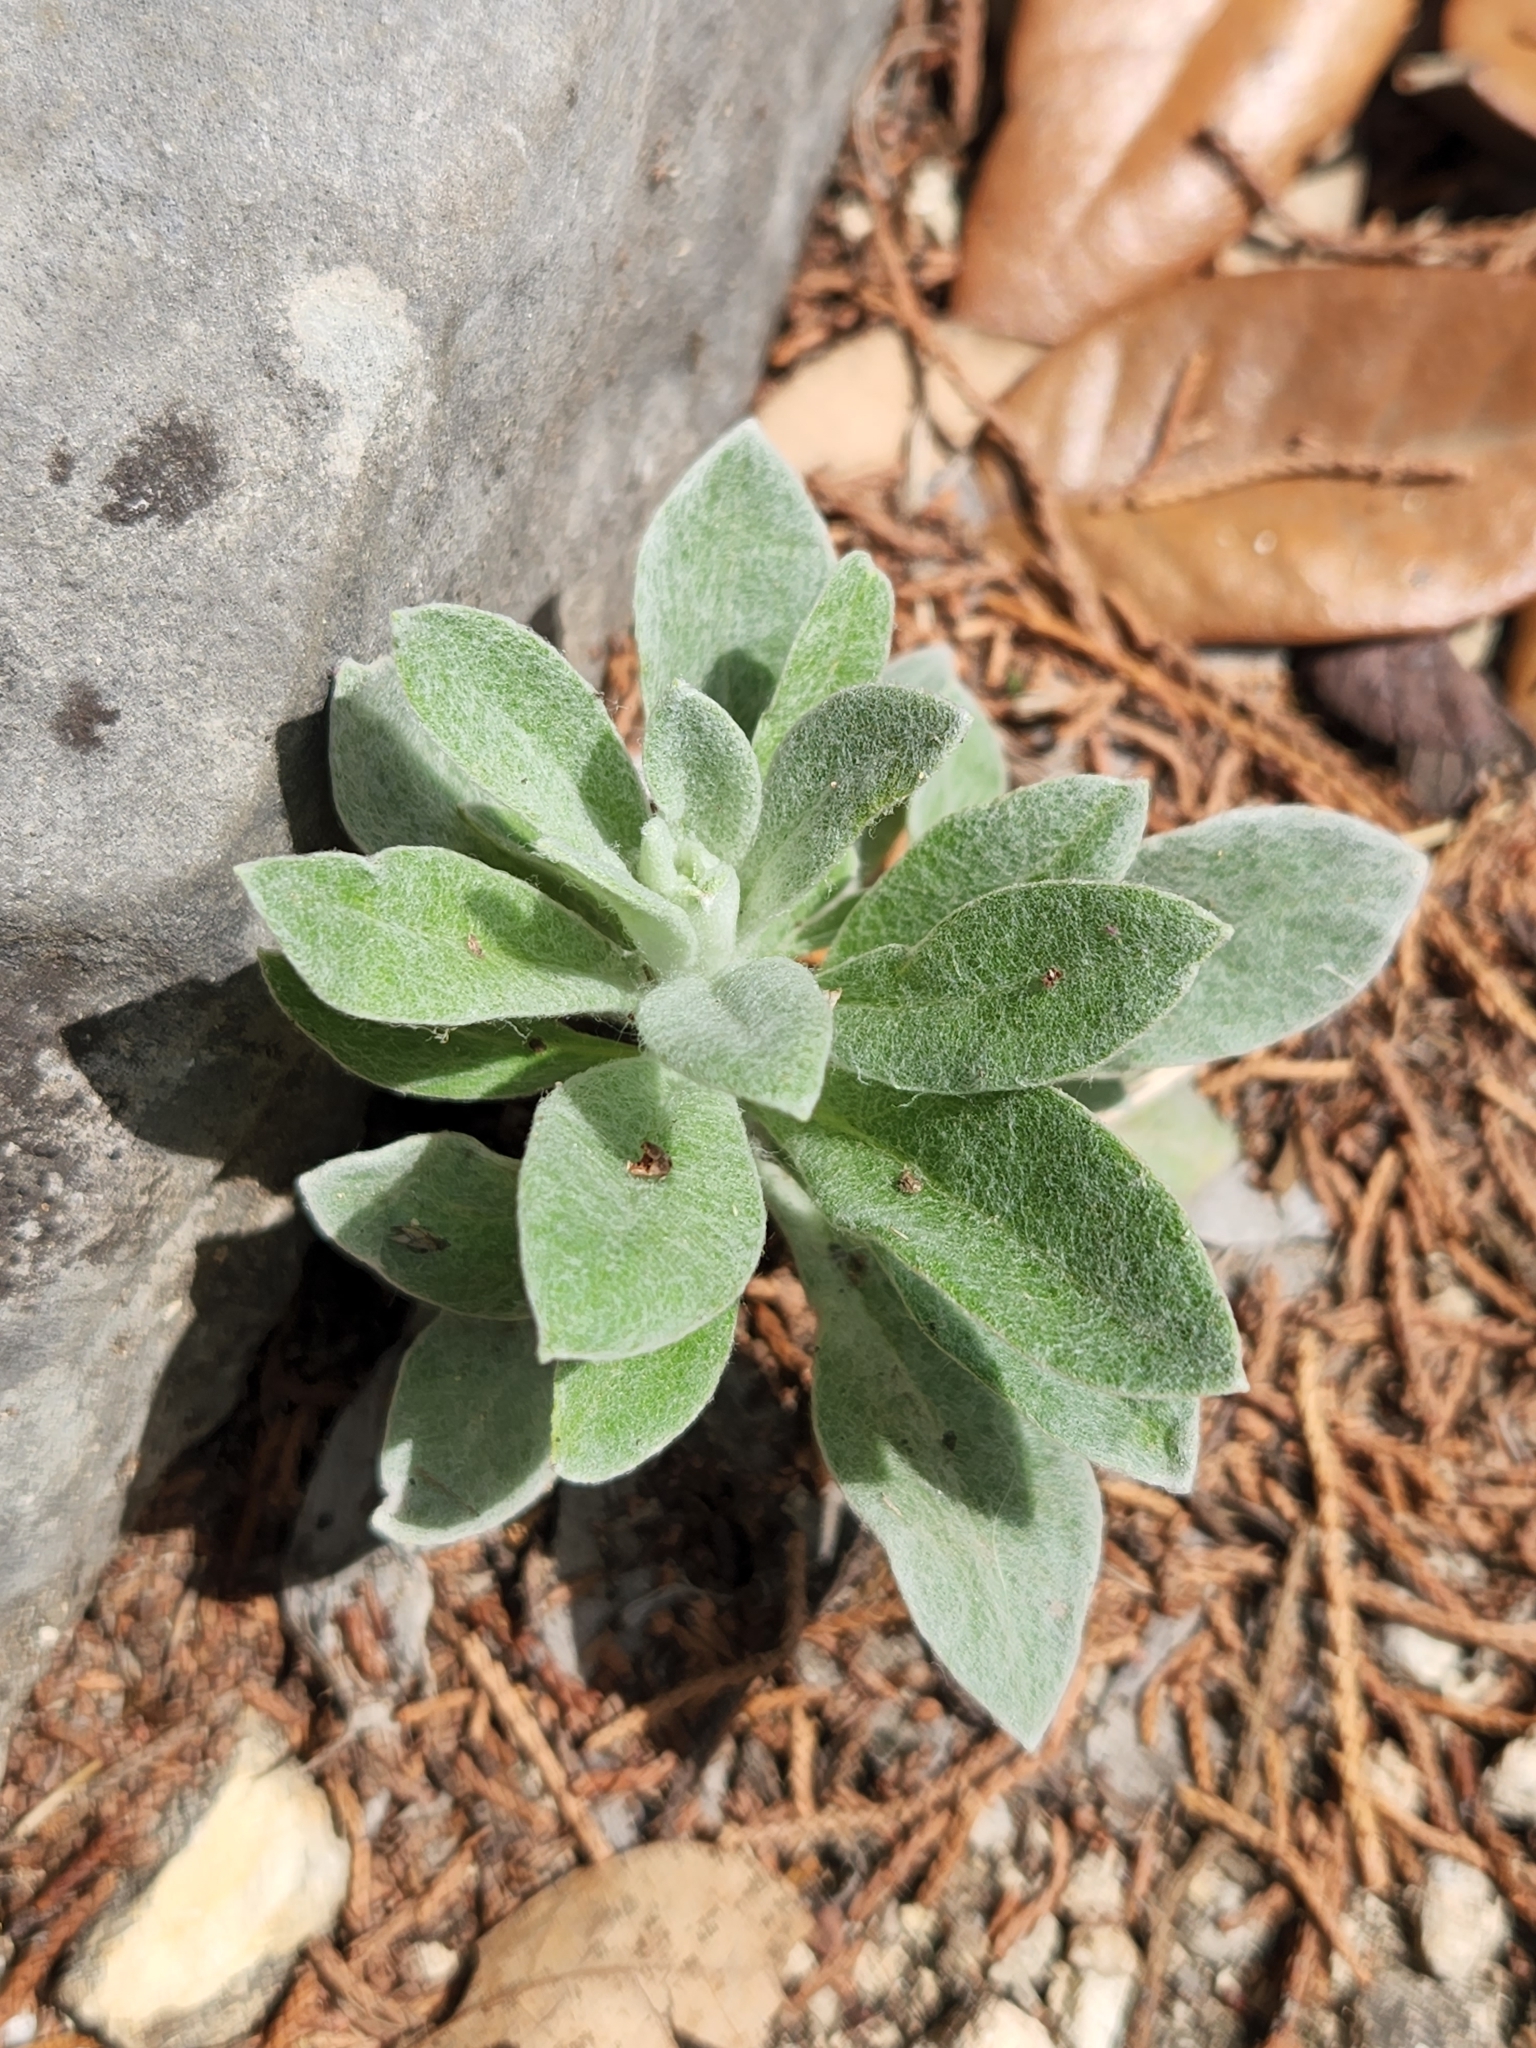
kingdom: Plantae
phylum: Tracheophyta
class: Magnoliopsida
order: Asterales
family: Asteraceae
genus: Pseudognaphalium
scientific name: Pseudognaphalium obtusifolium
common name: Eastern rabbit-tobacco
